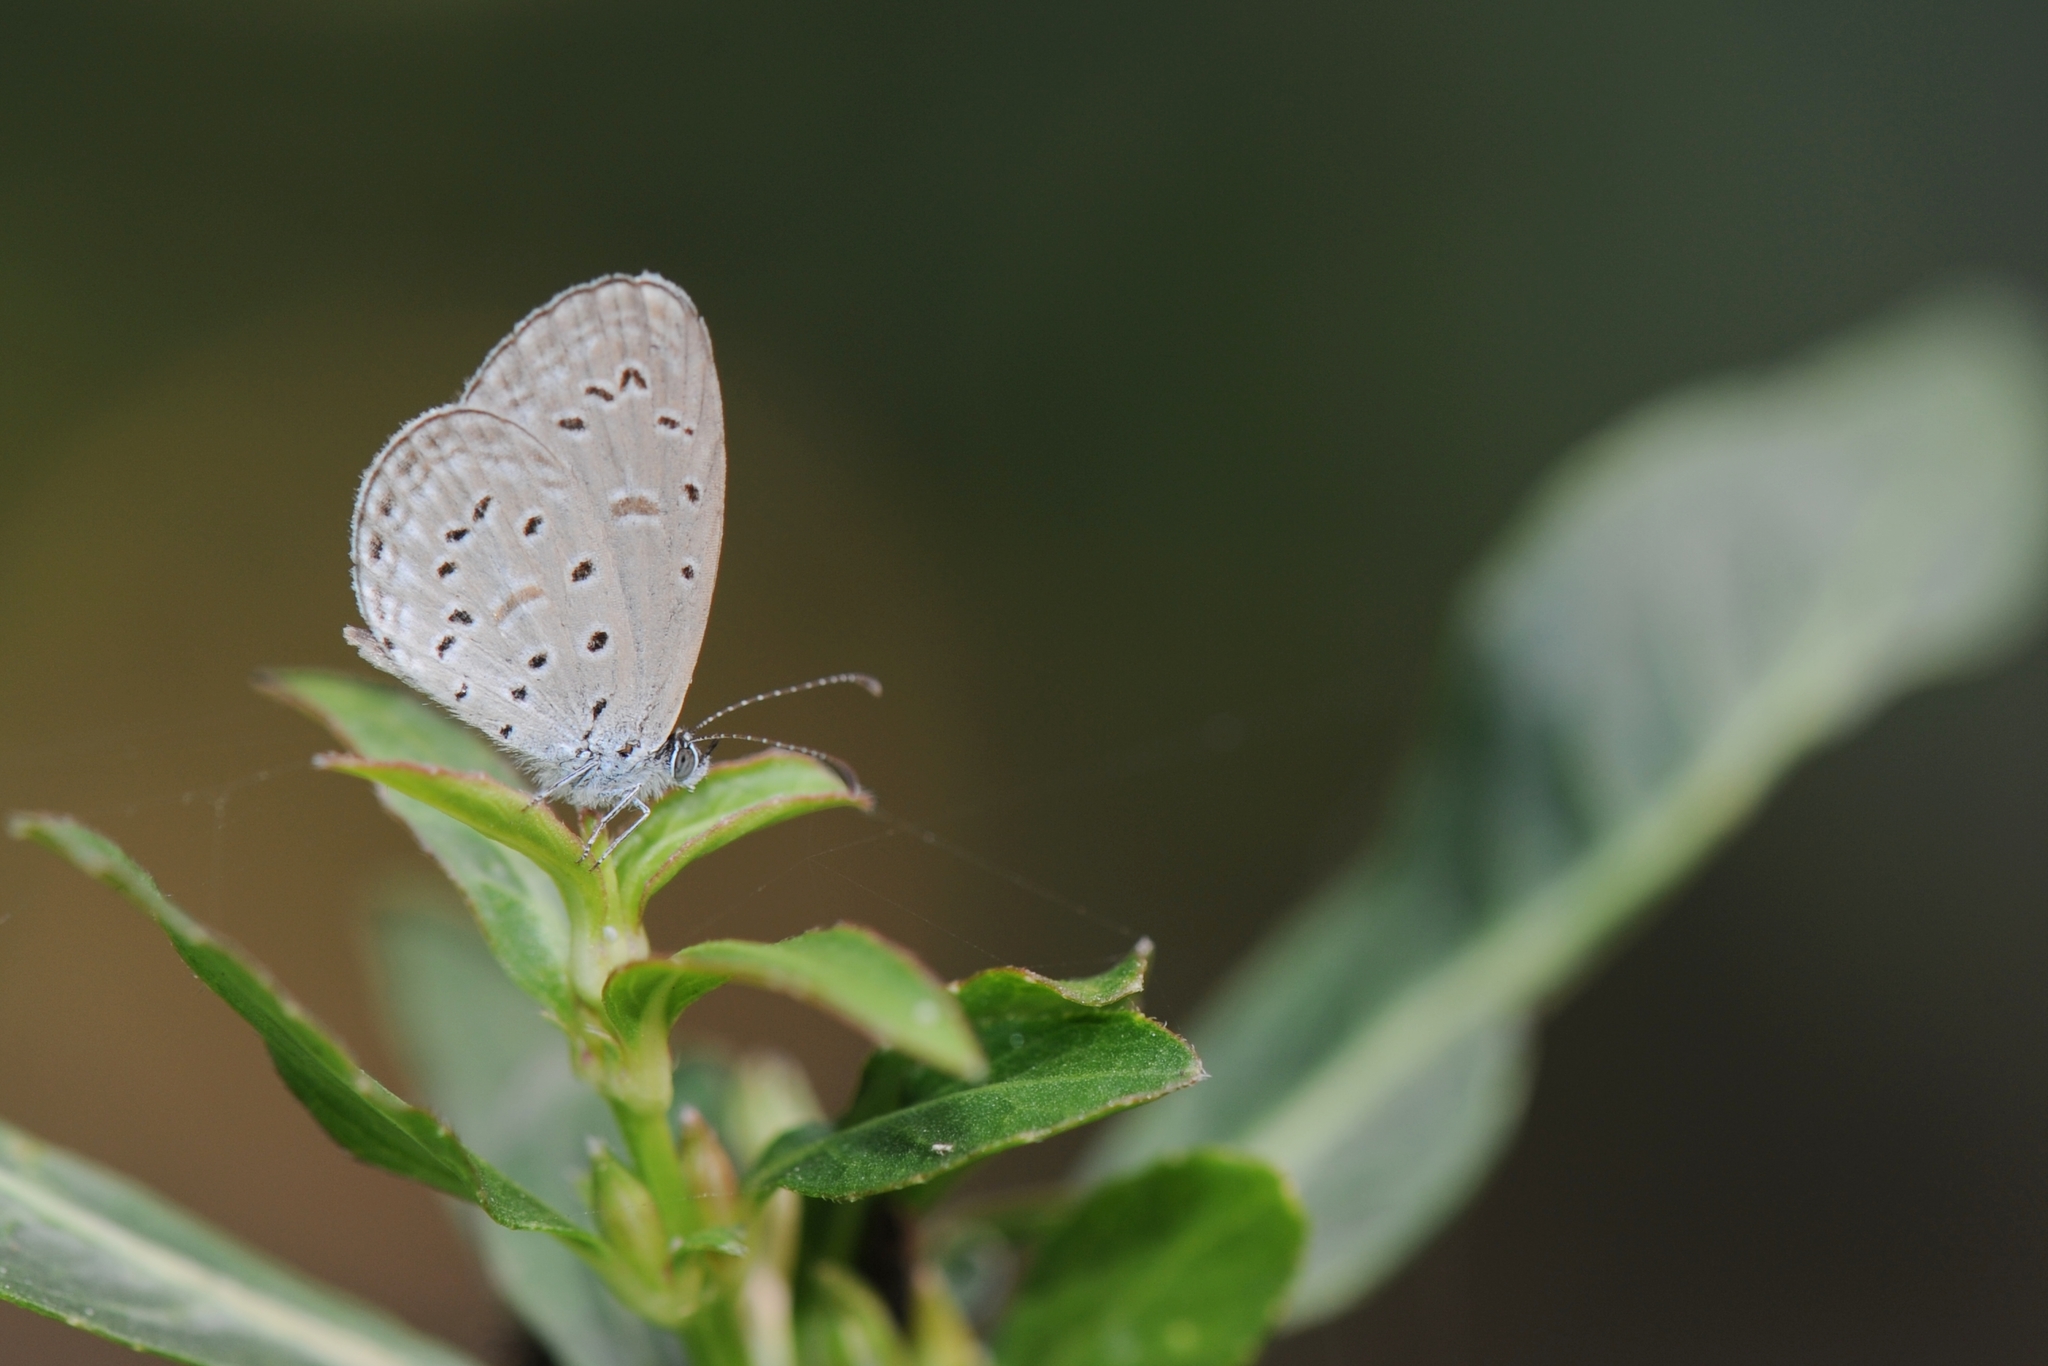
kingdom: Animalia
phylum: Arthropoda
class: Insecta
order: Lepidoptera
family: Lycaenidae
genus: Zizula
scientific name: Zizula hylax
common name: Gaika blue
